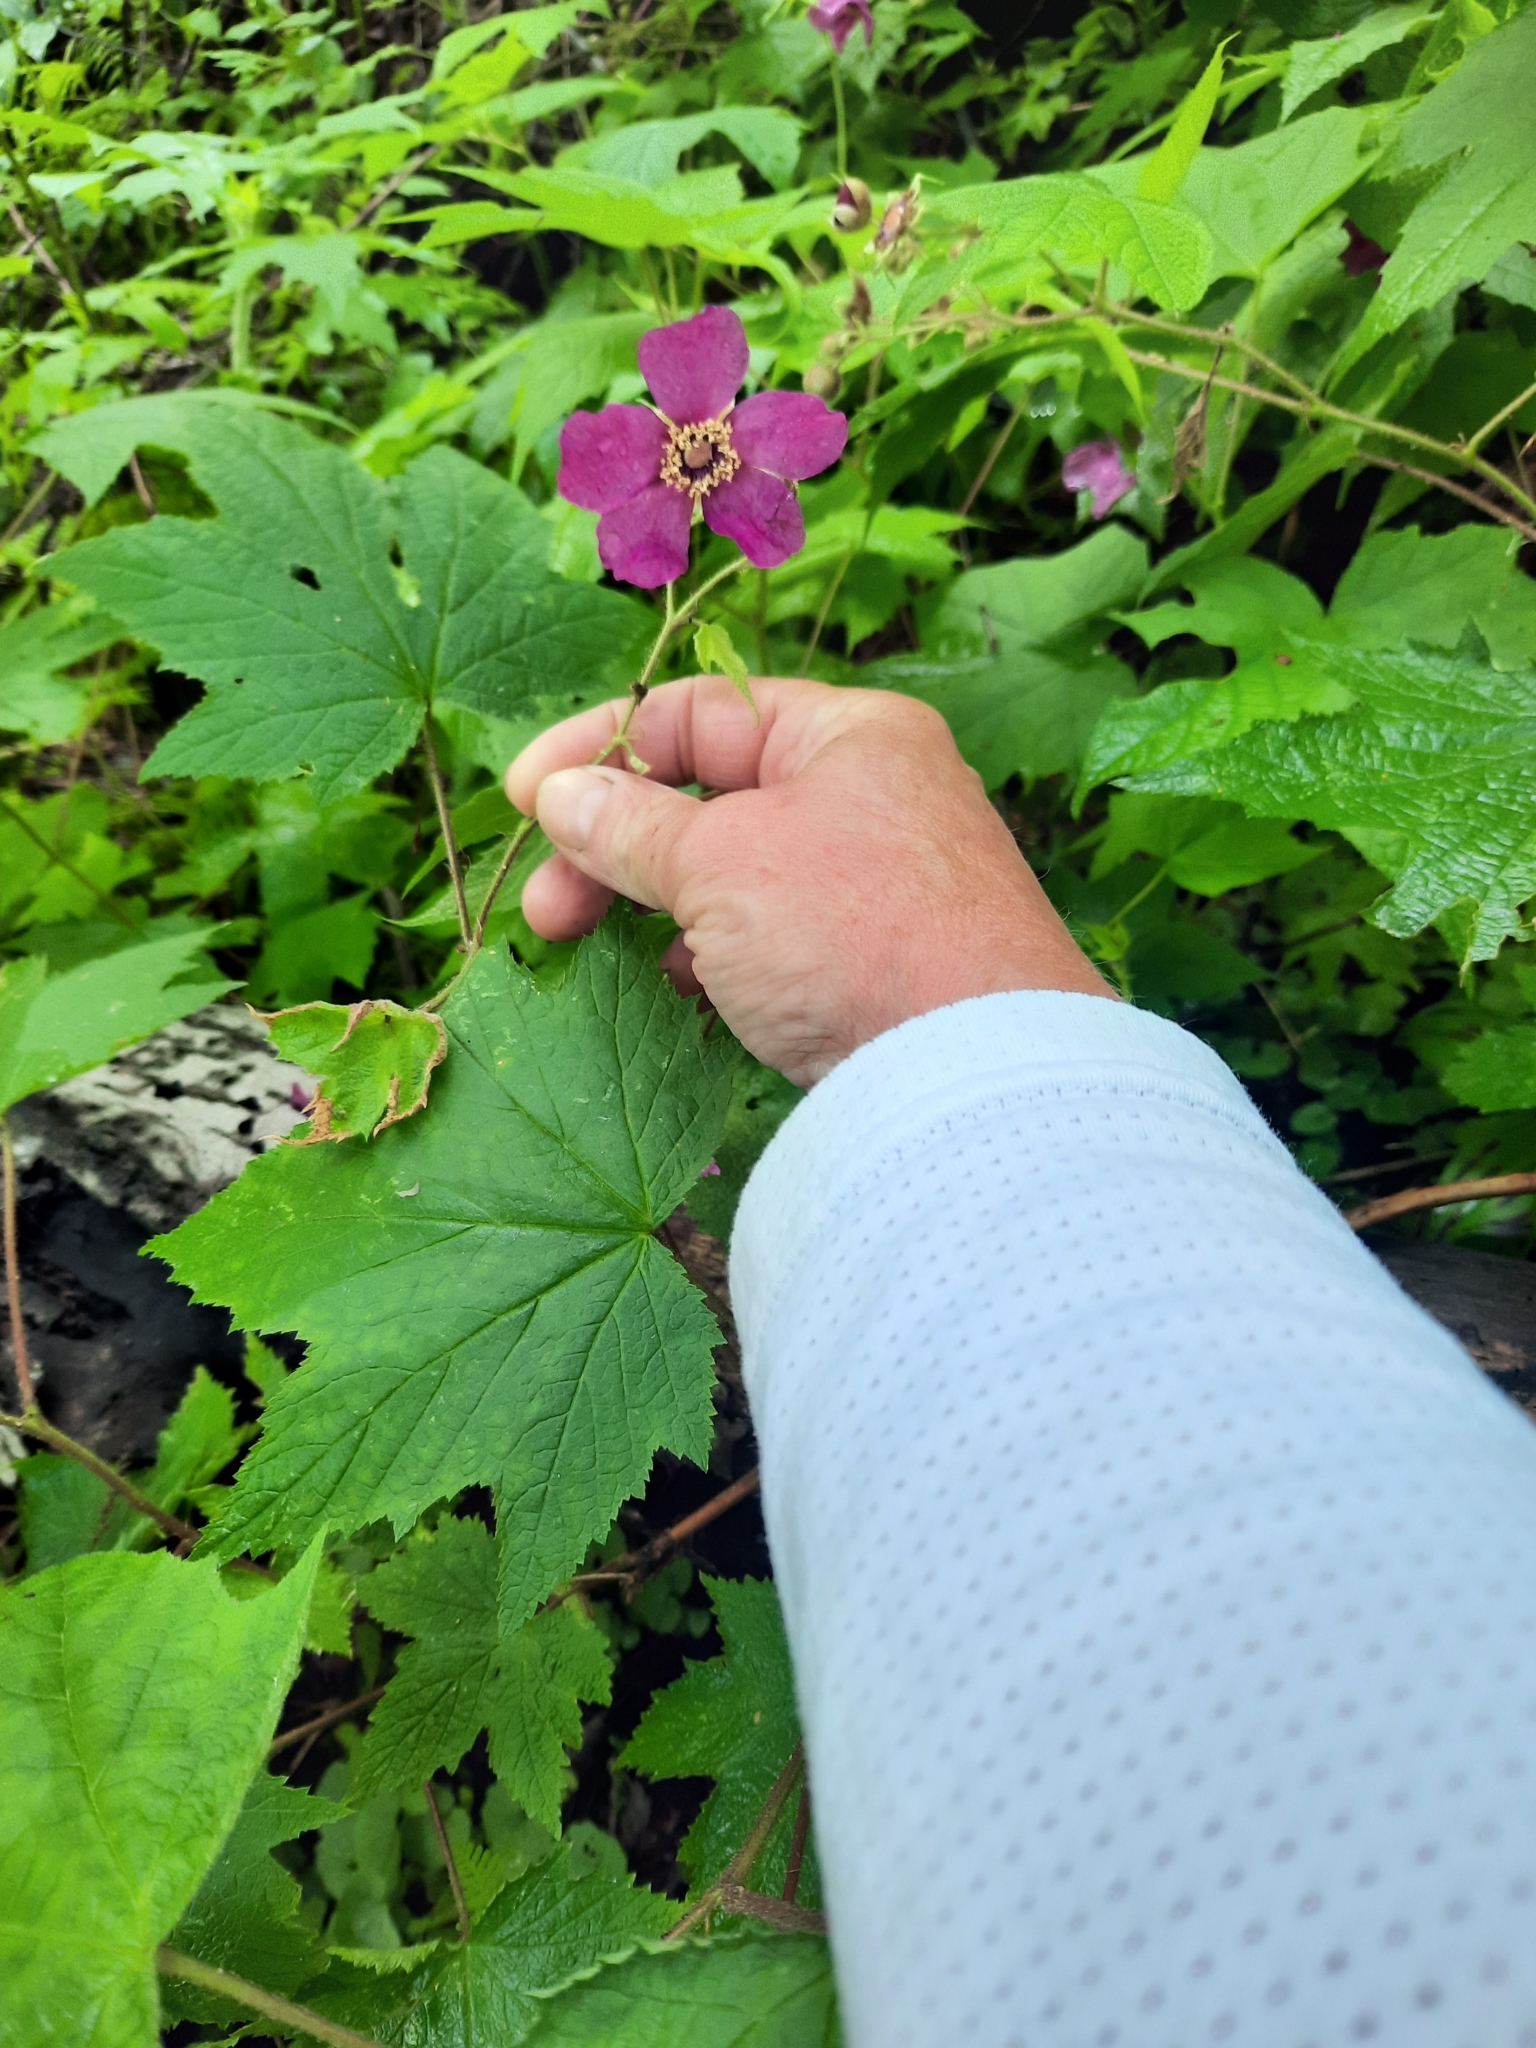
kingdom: Plantae
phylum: Tracheophyta
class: Magnoliopsida
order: Rosales
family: Rosaceae
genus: Rubus
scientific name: Rubus odoratus
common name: Purple-flowered raspberry
